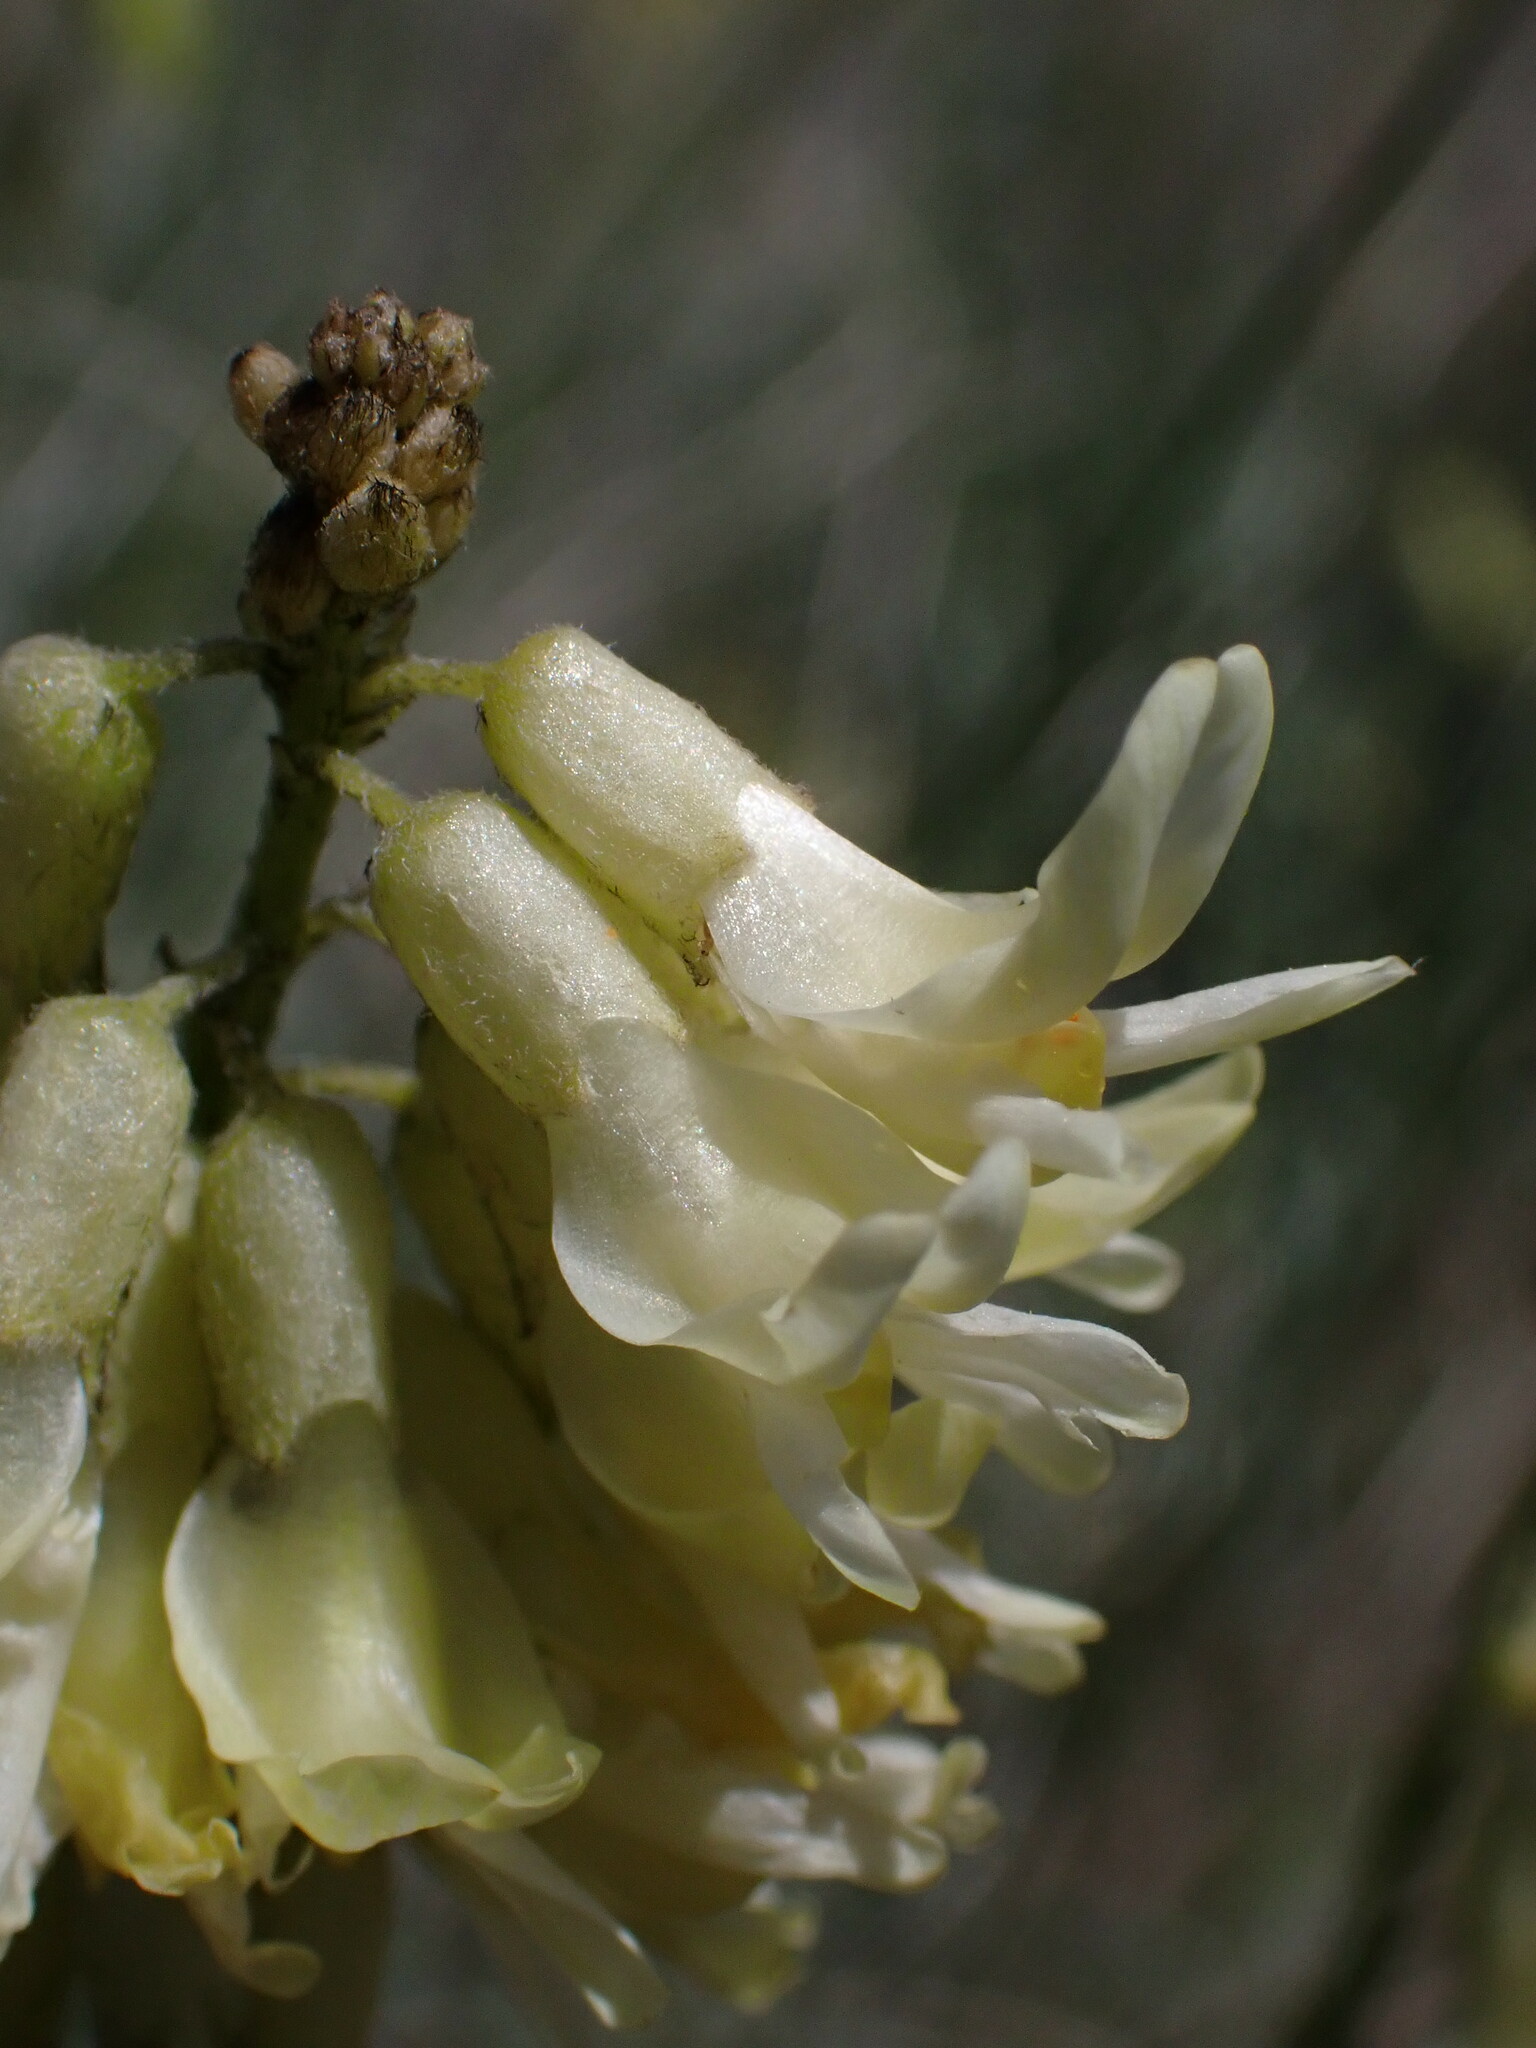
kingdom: Plantae
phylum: Tracheophyta
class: Magnoliopsida
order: Fabales
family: Fabaceae
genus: Astragalus
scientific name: Astragalus filipes
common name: Basalt milk-vetch
